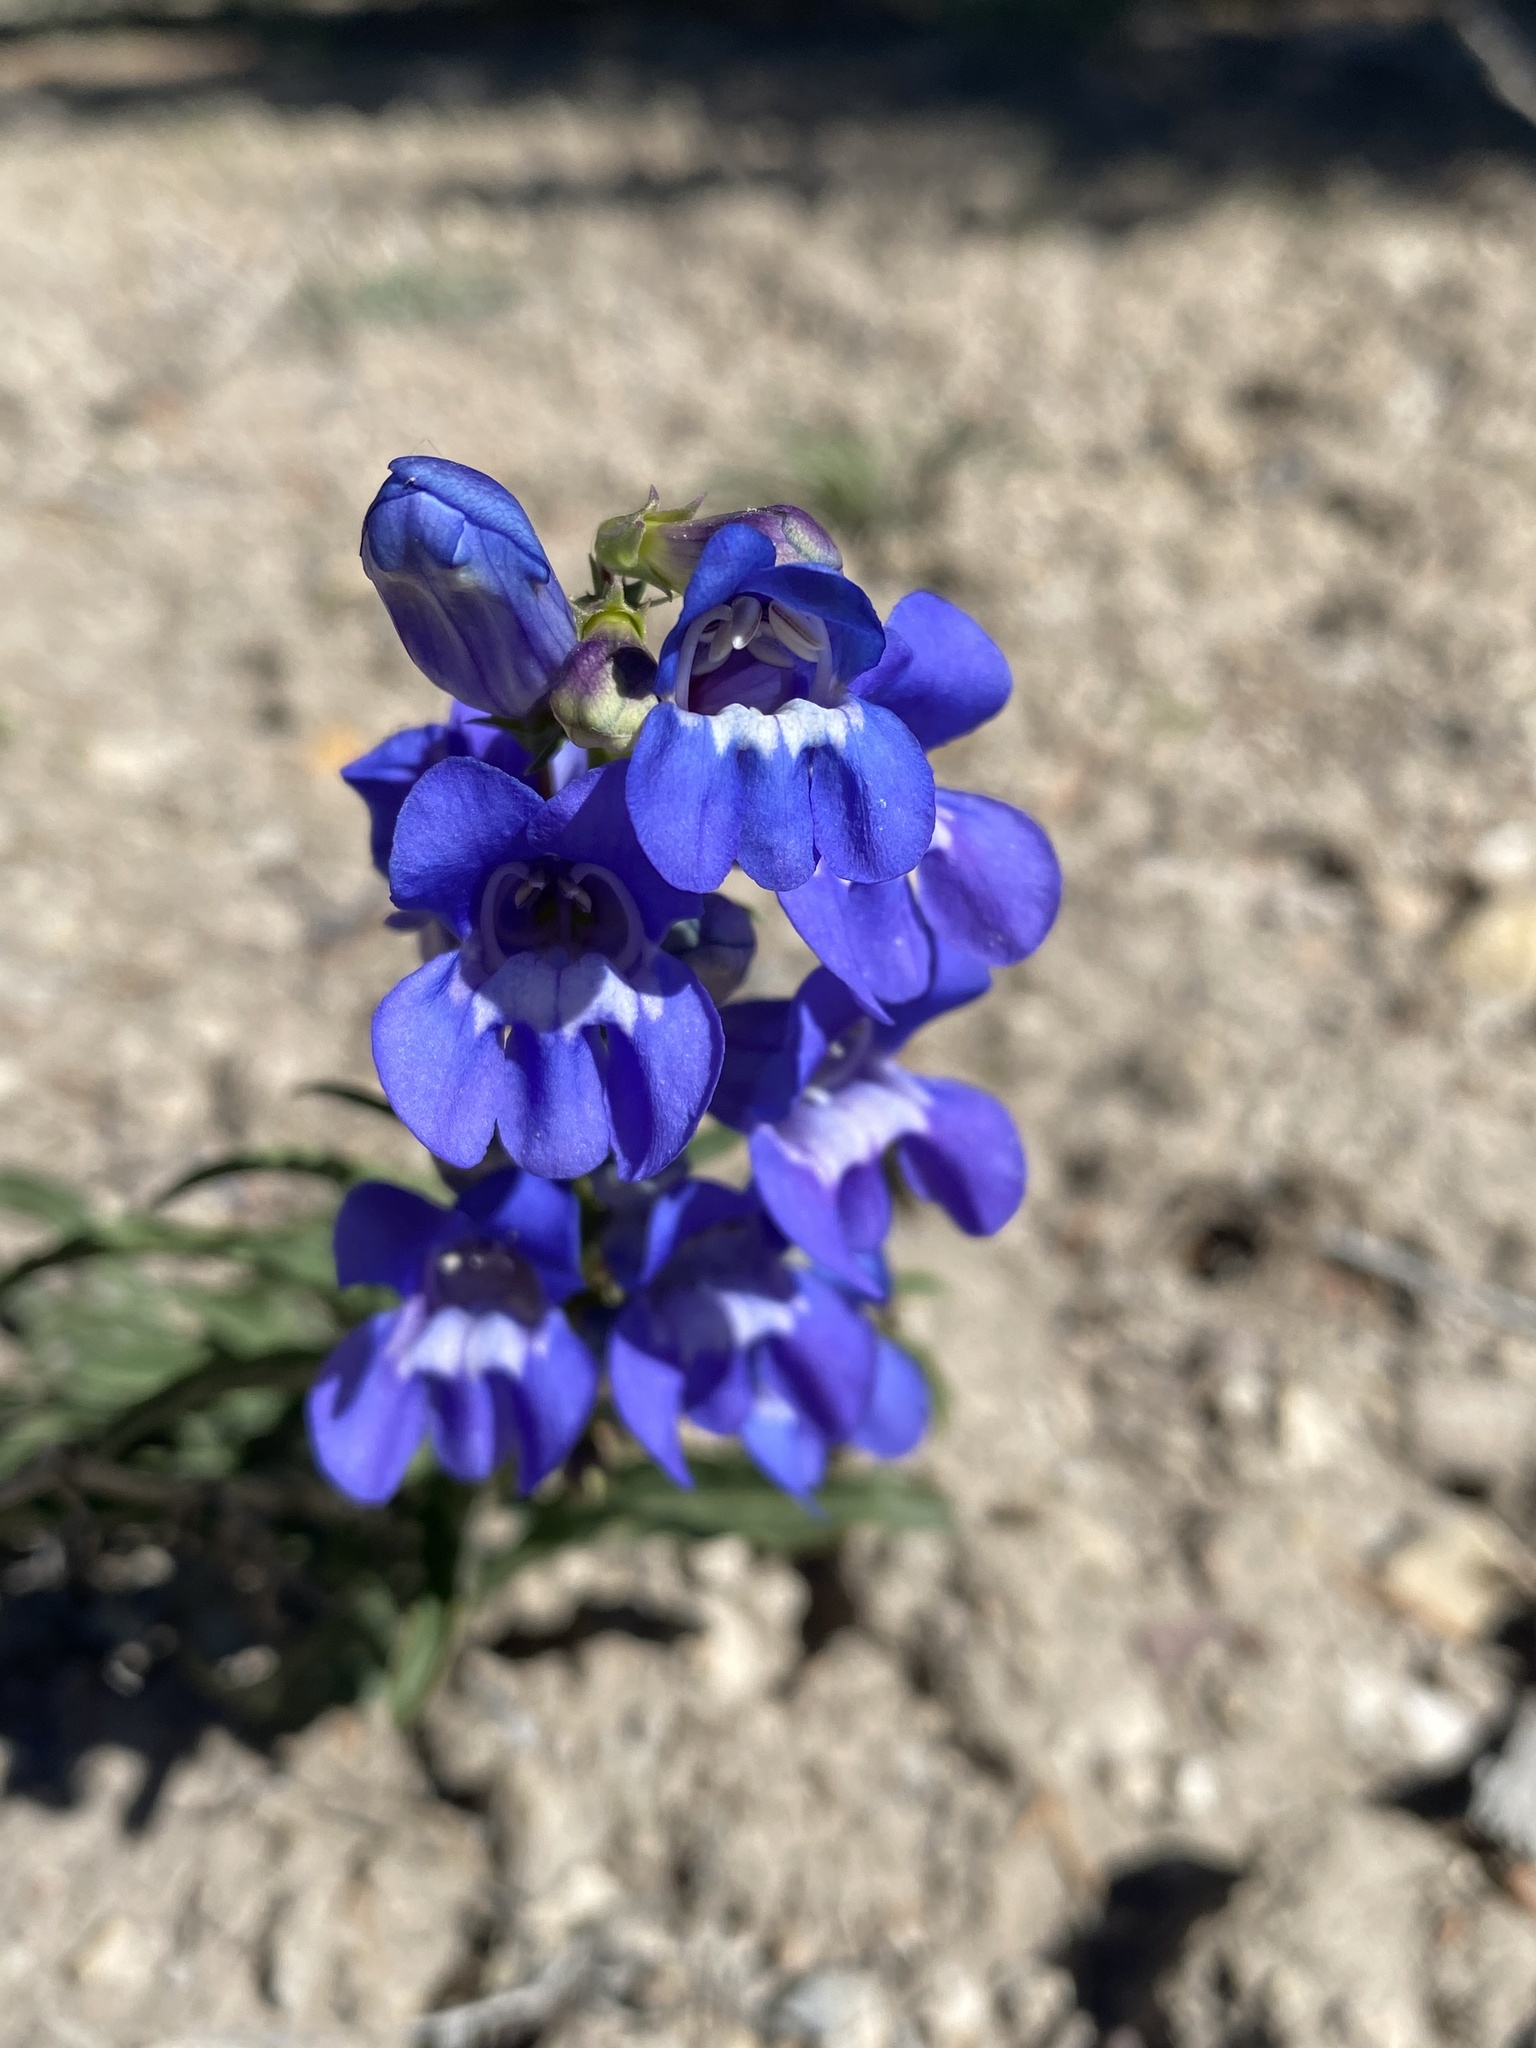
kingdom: Plantae
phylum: Tracheophyta
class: Magnoliopsida
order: Lamiales
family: Plantaginaceae
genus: Penstemon
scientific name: Penstemon speciosus
